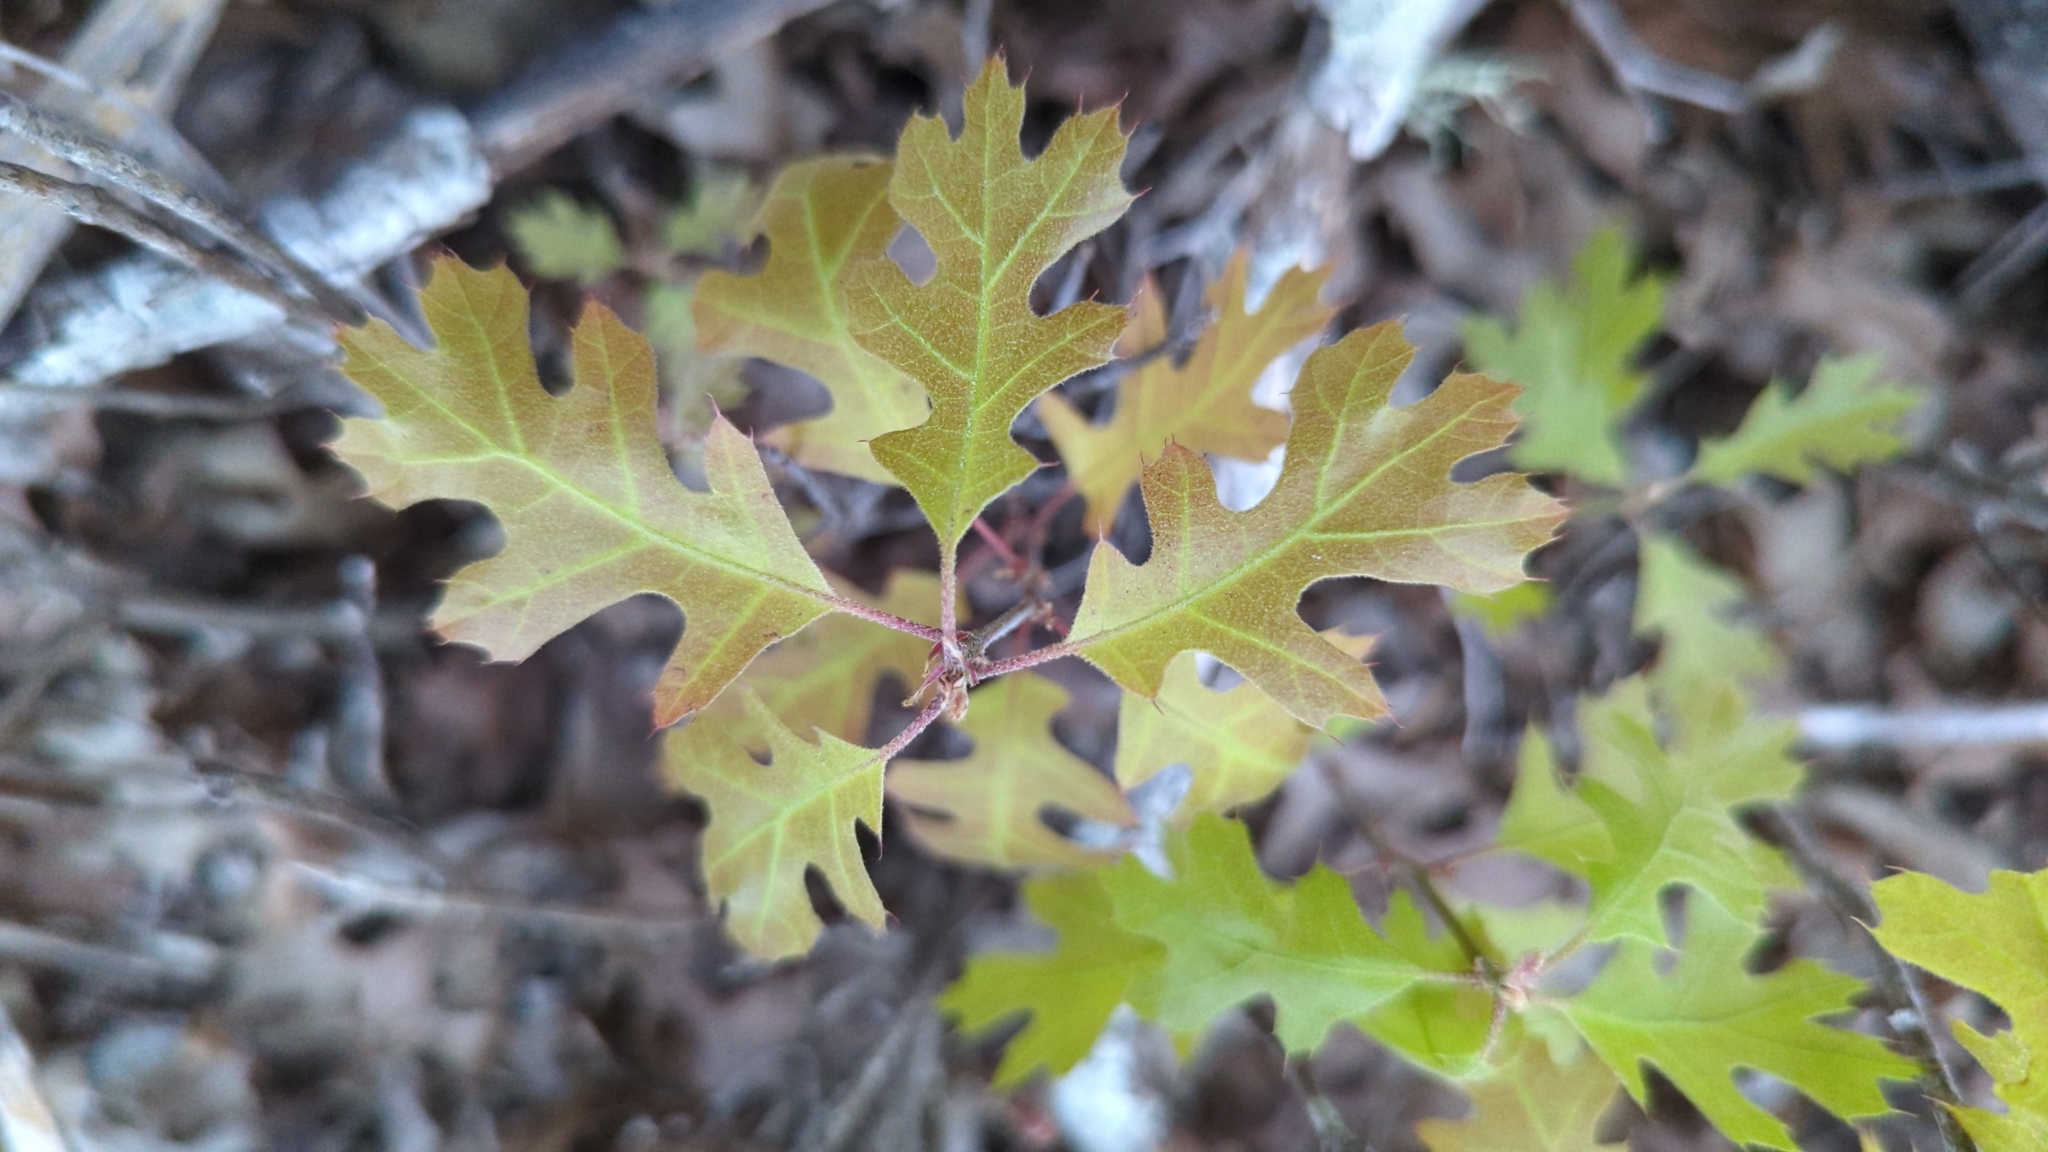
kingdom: Plantae
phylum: Tracheophyta
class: Magnoliopsida
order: Fagales
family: Fagaceae
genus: Quercus
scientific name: Quercus buckleyi
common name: Buckley oak
